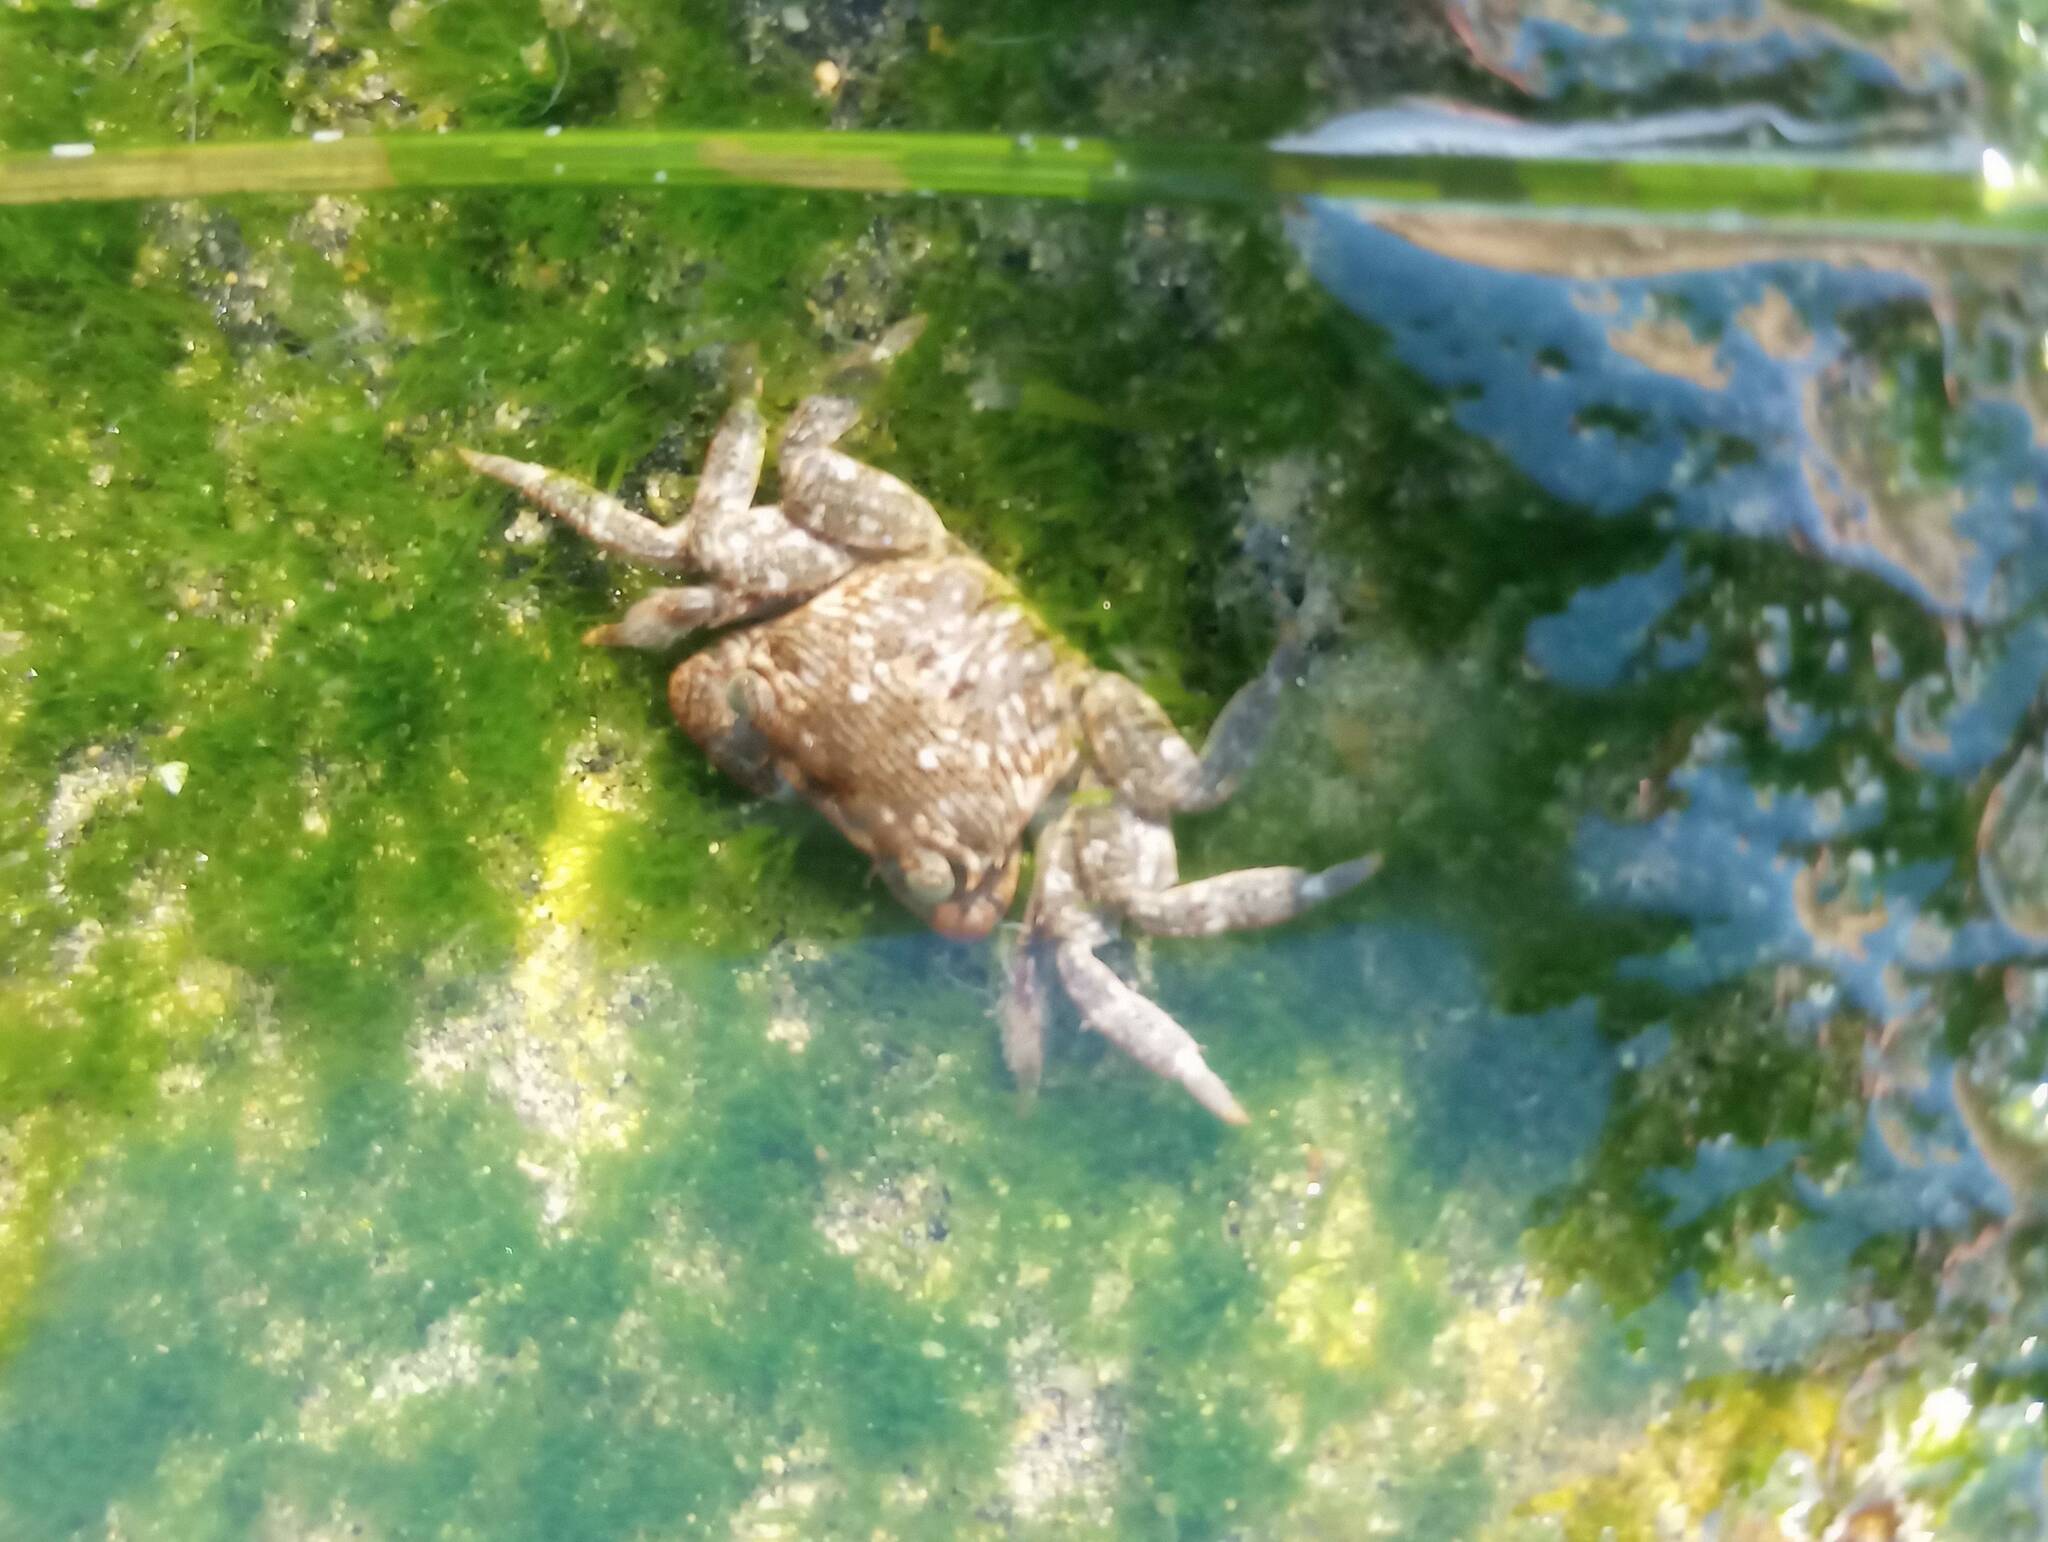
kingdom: Animalia
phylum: Arthropoda
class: Malacostraca
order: Decapoda
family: Grapsidae
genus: Pachygrapsus
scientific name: Pachygrapsus crassipes
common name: Striped shore crab
